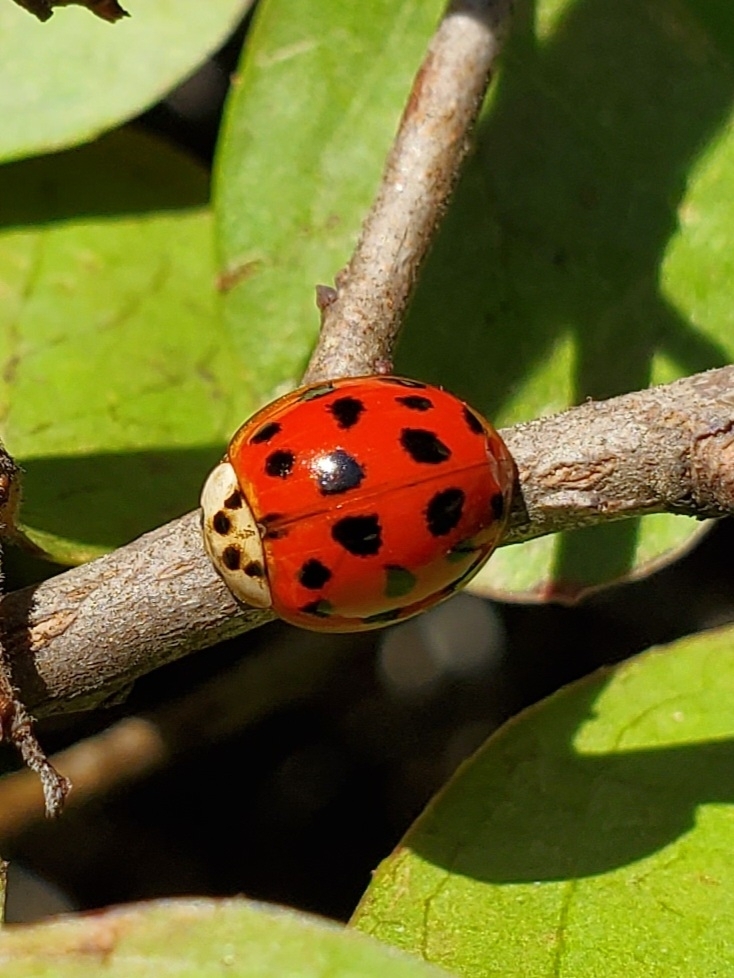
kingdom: Animalia
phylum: Arthropoda
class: Insecta
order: Coleoptera
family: Coccinellidae
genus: Harmonia
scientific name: Harmonia axyridis
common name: Harlequin ladybird
